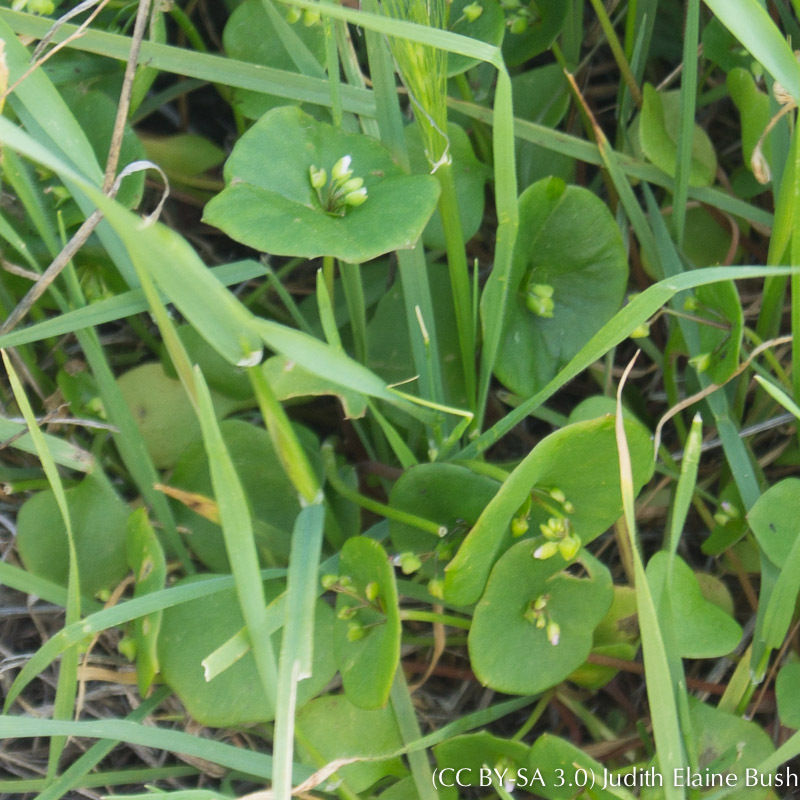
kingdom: Plantae
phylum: Tracheophyta
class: Magnoliopsida
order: Caryophyllales
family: Montiaceae
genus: Claytonia
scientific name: Claytonia perfoliata
